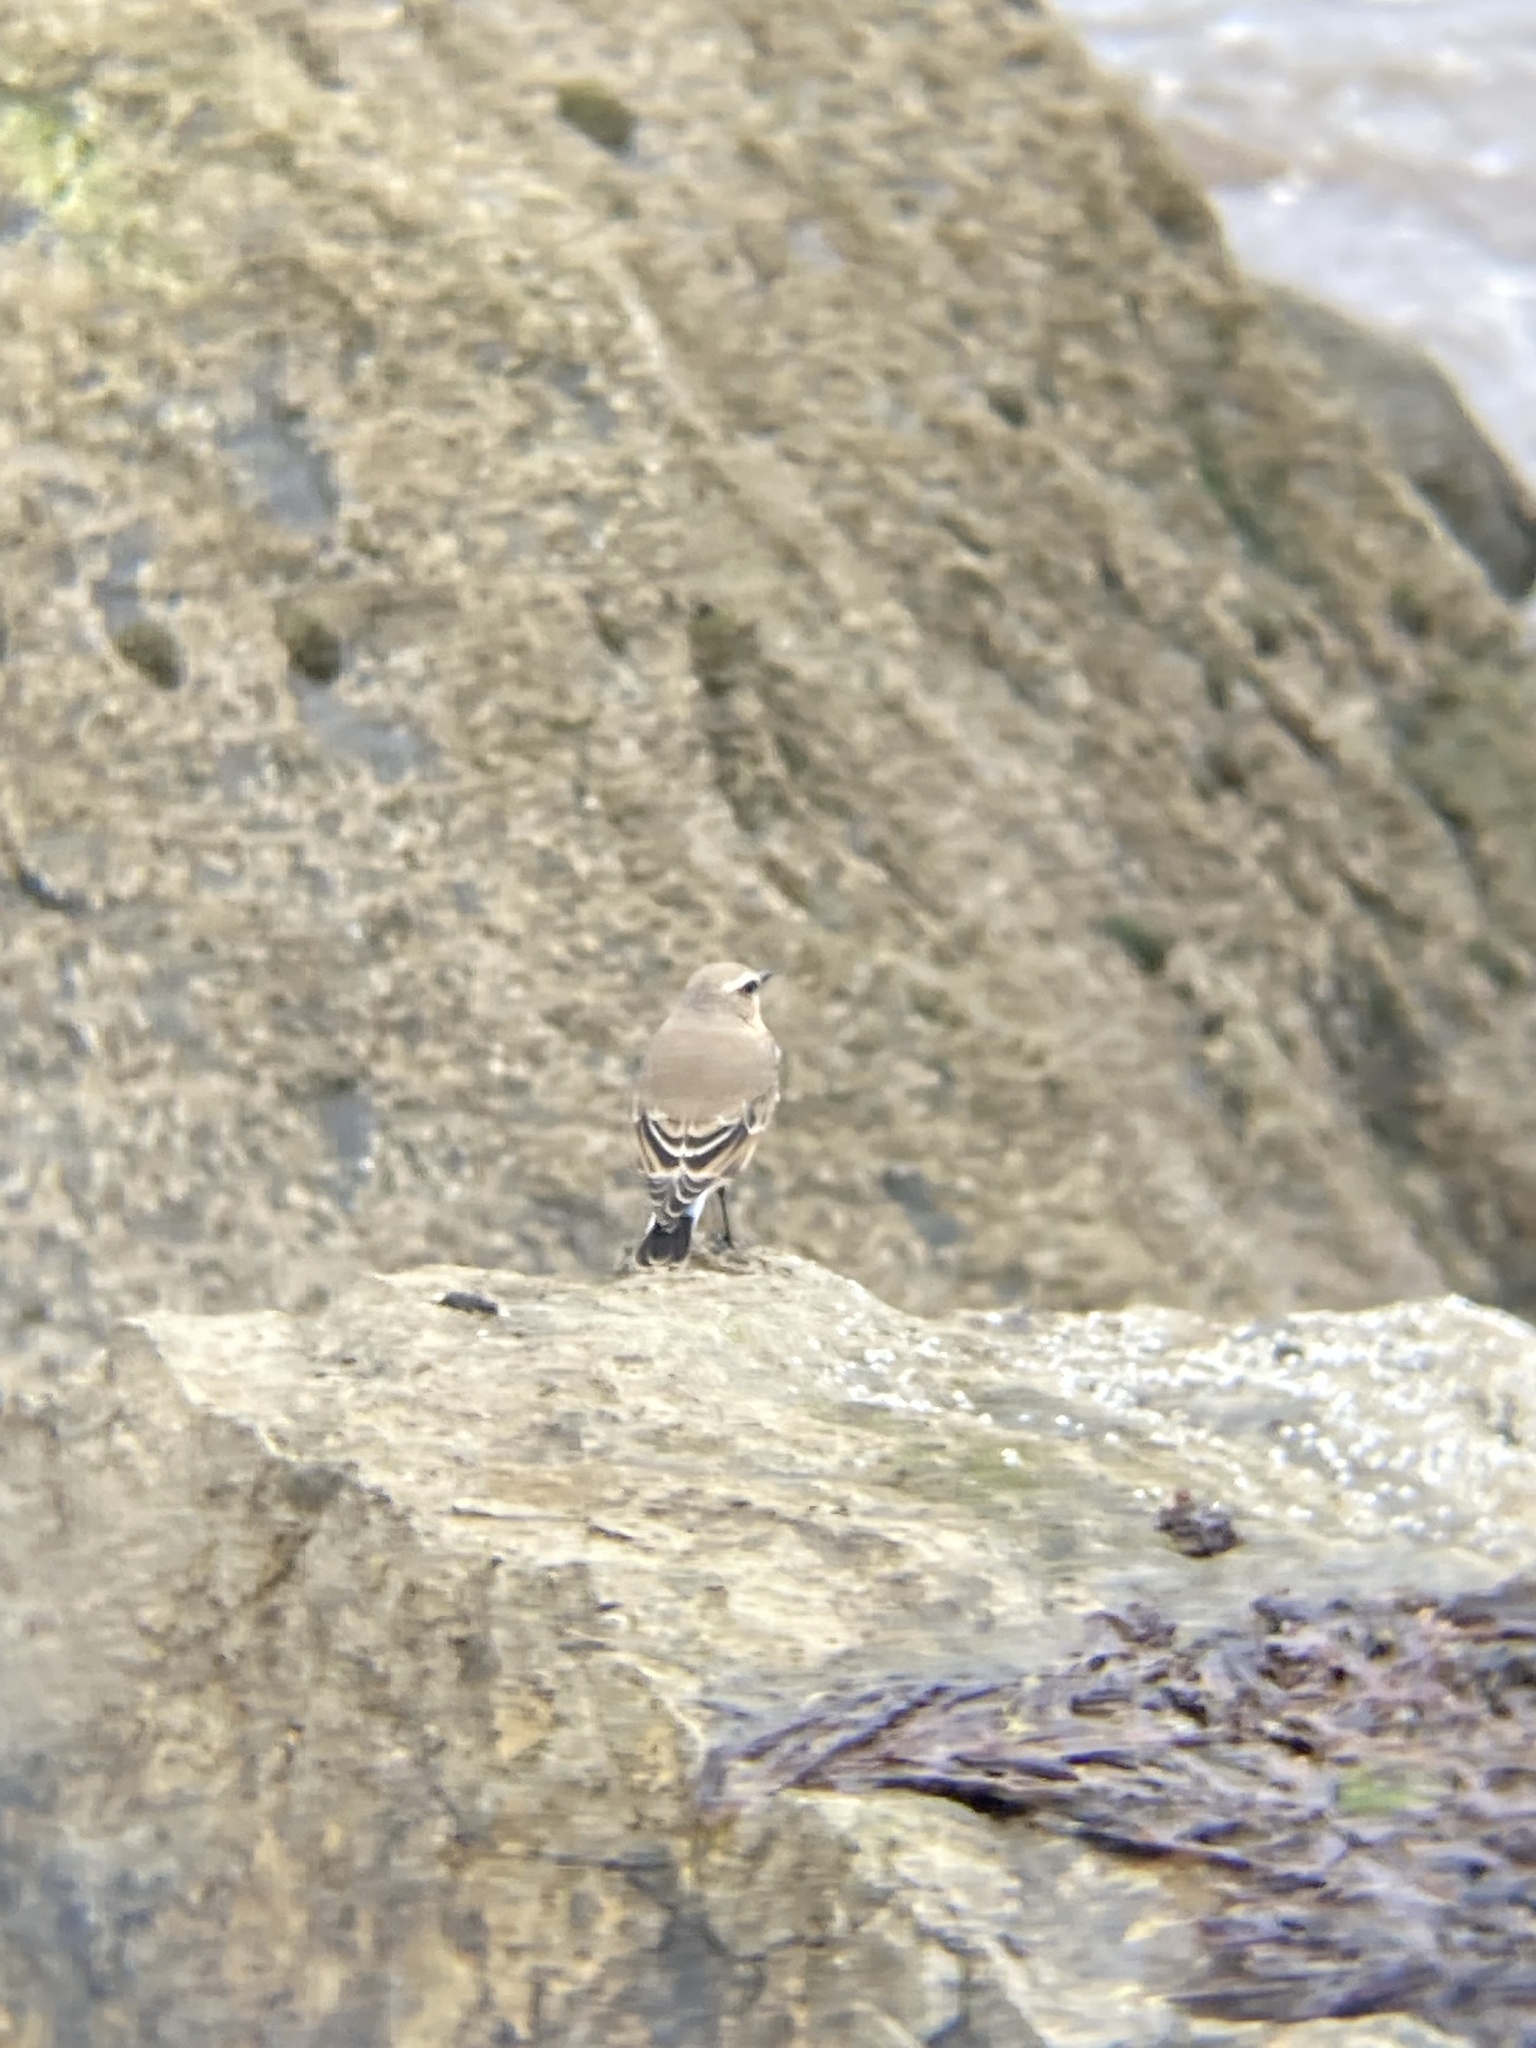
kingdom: Animalia
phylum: Chordata
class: Aves
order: Passeriformes
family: Muscicapidae
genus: Oenanthe
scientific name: Oenanthe oenanthe
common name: Northern wheatear
